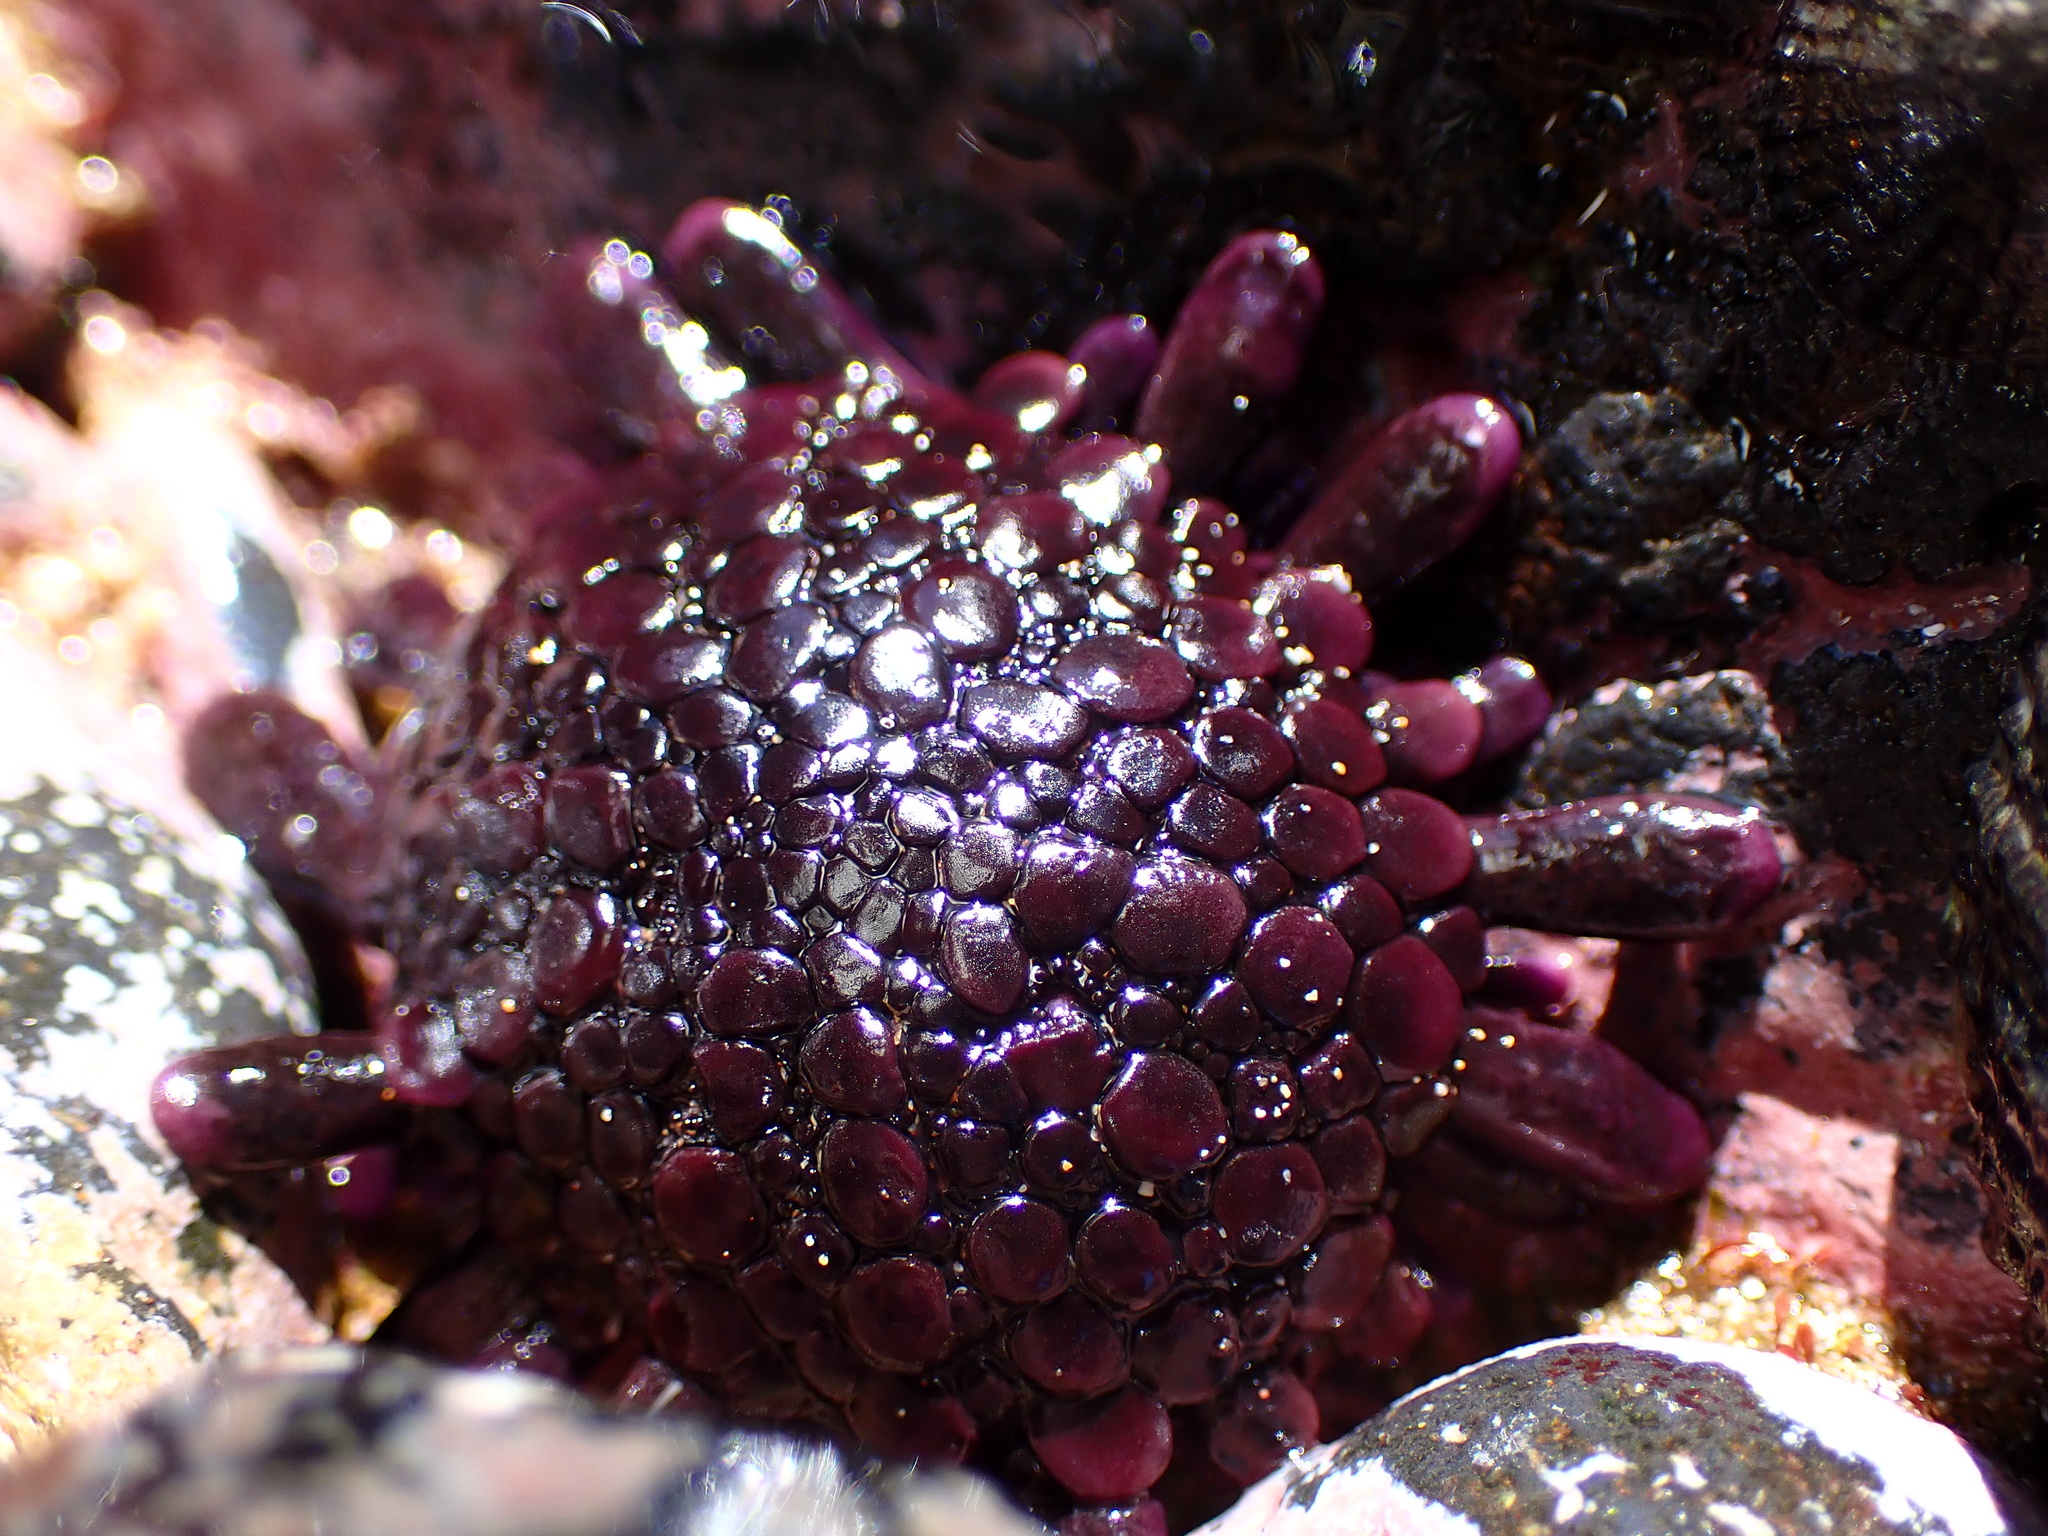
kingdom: Animalia
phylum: Echinodermata
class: Echinoidea
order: Camarodonta
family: Echinometridae
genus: Colobocentrotus
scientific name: Colobocentrotus atratus
